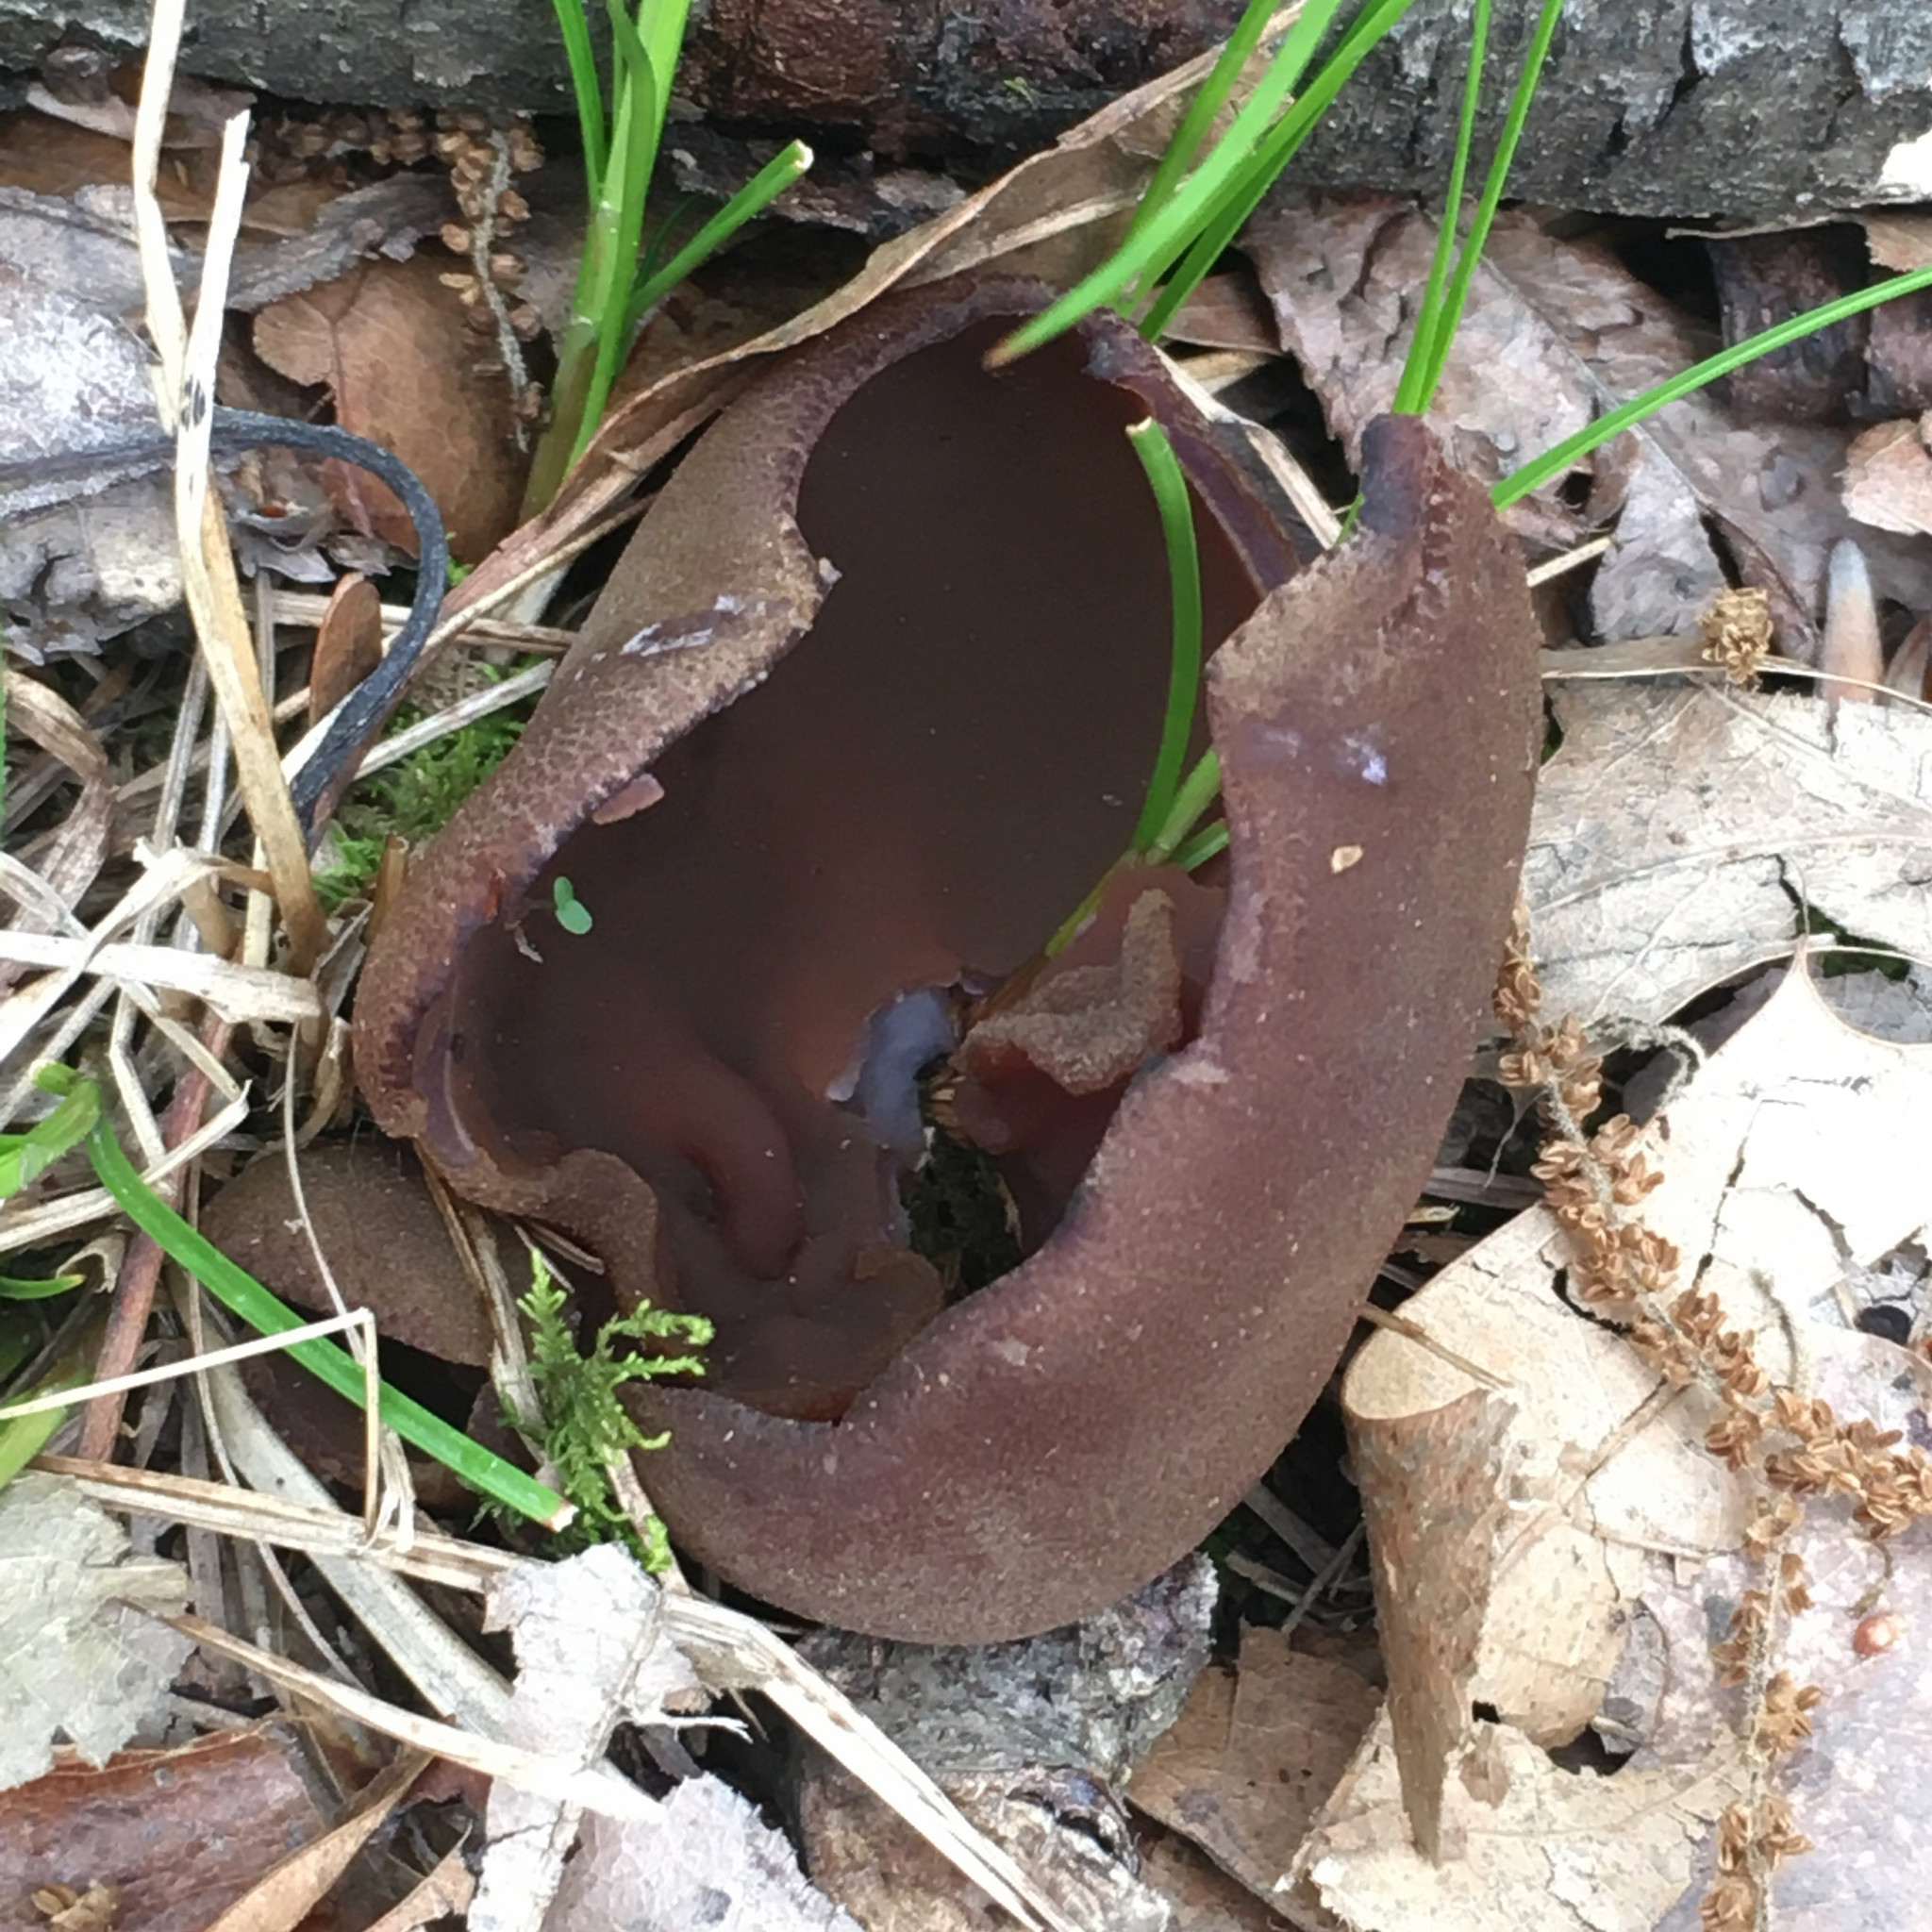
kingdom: Fungi
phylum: Ascomycota
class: Pezizomycetes
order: Pezizales
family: Pezizaceae
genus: Phylloscypha
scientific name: Phylloscypha phyllogena
